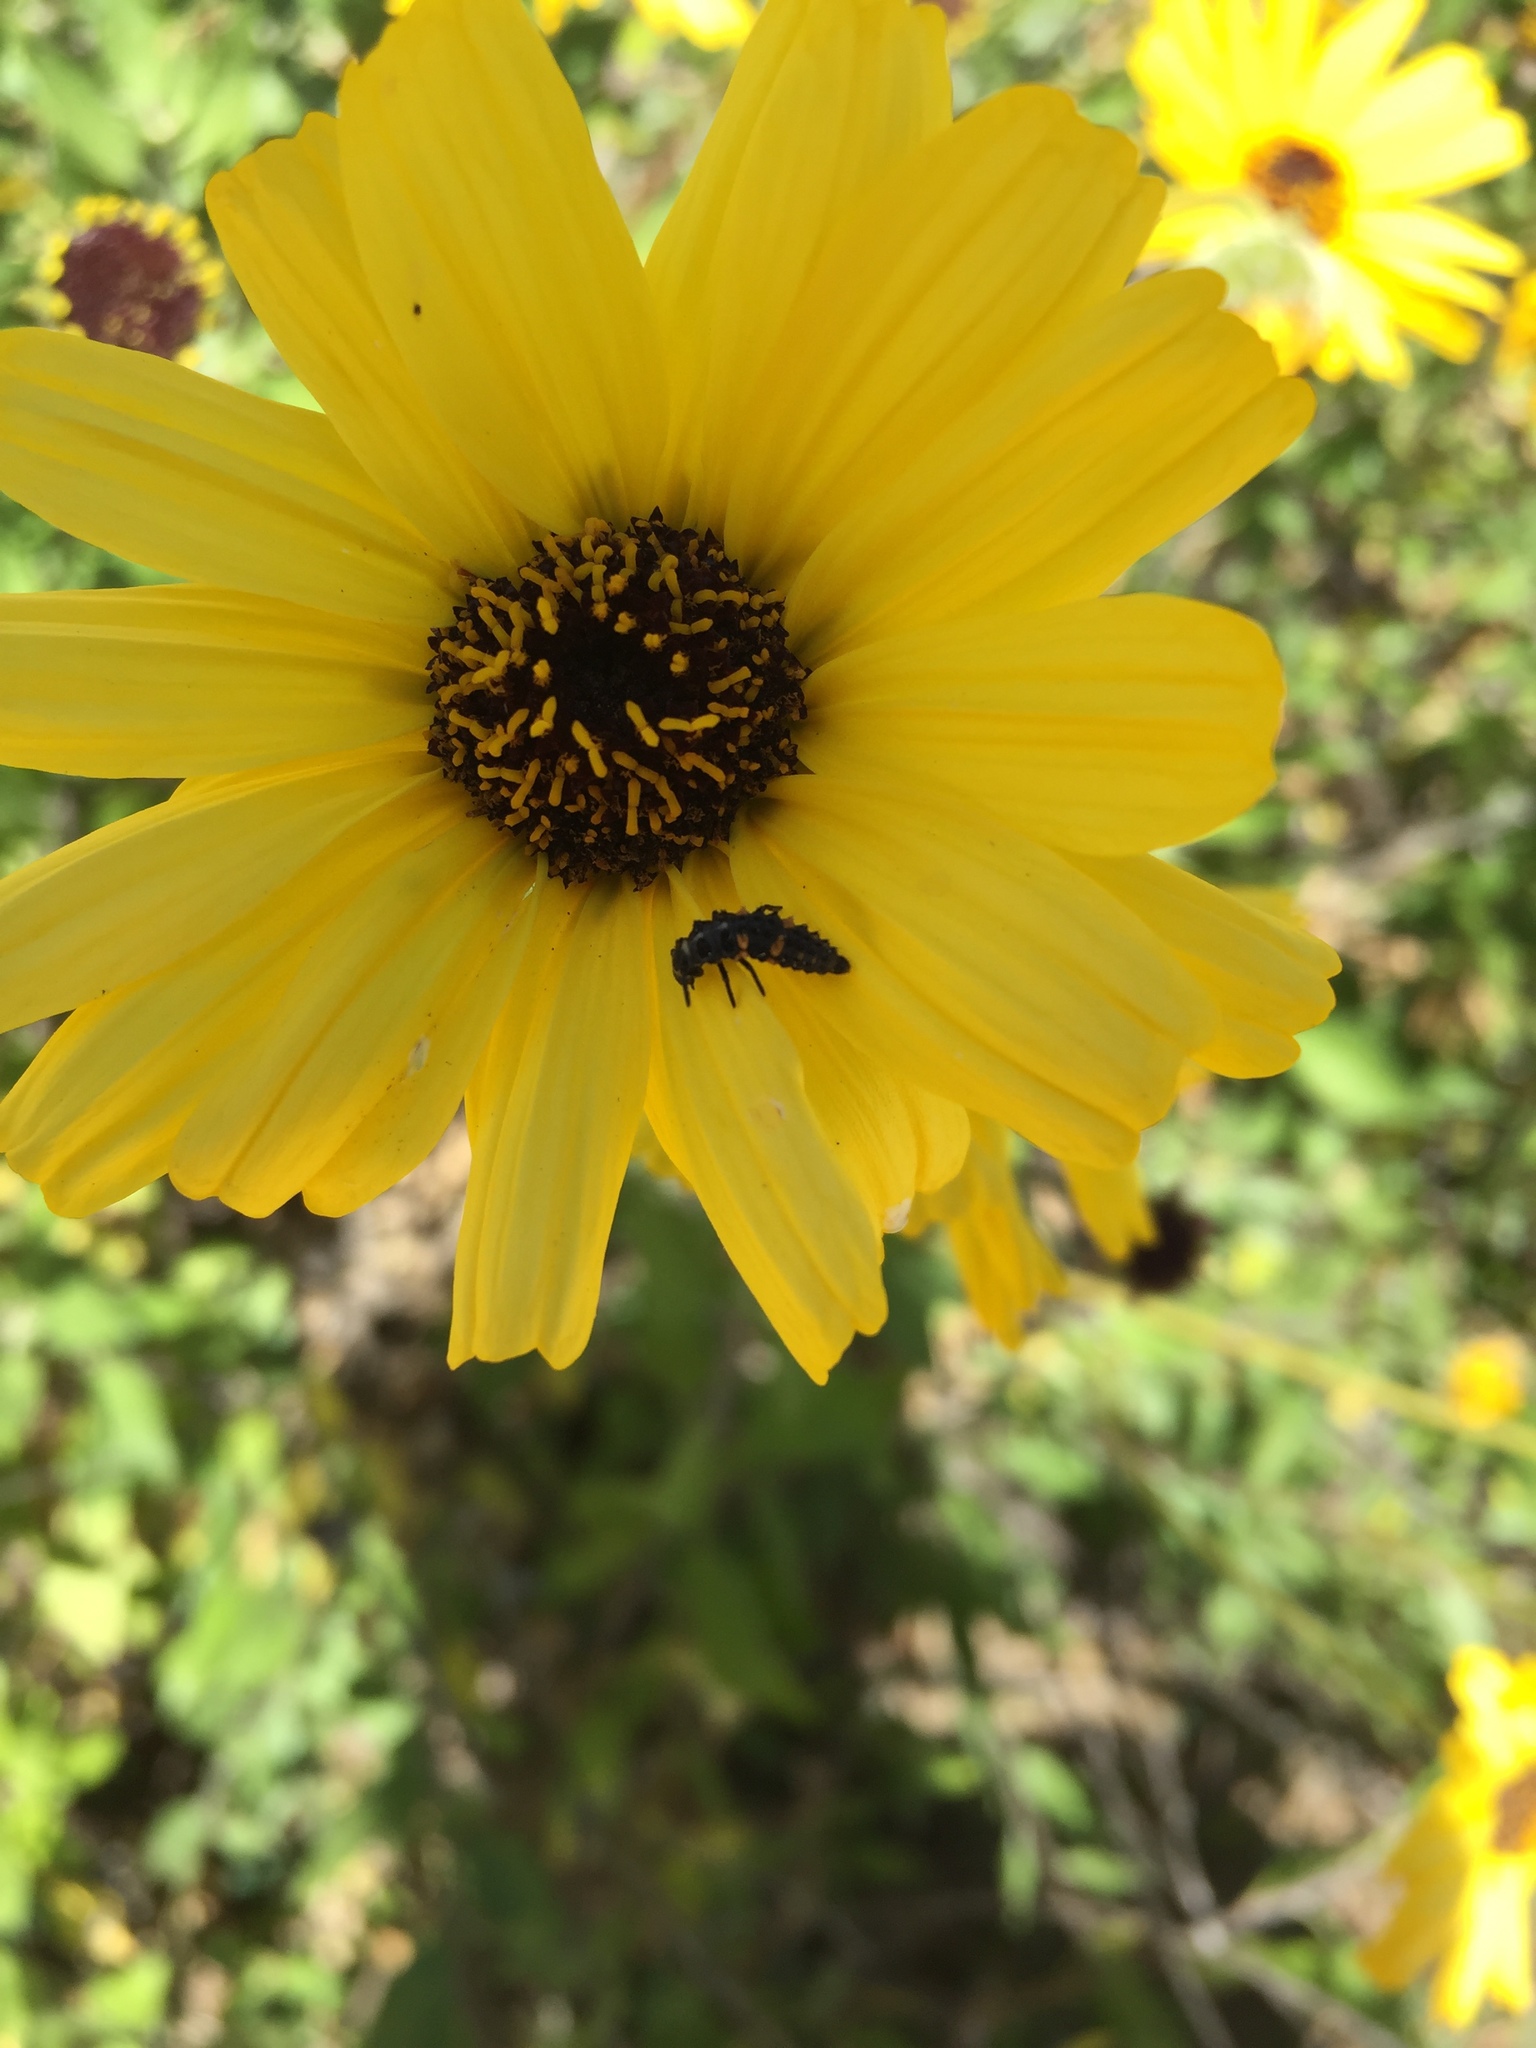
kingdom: Plantae
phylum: Tracheophyta
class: Magnoliopsida
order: Asterales
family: Asteraceae
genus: Encelia
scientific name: Encelia californica
